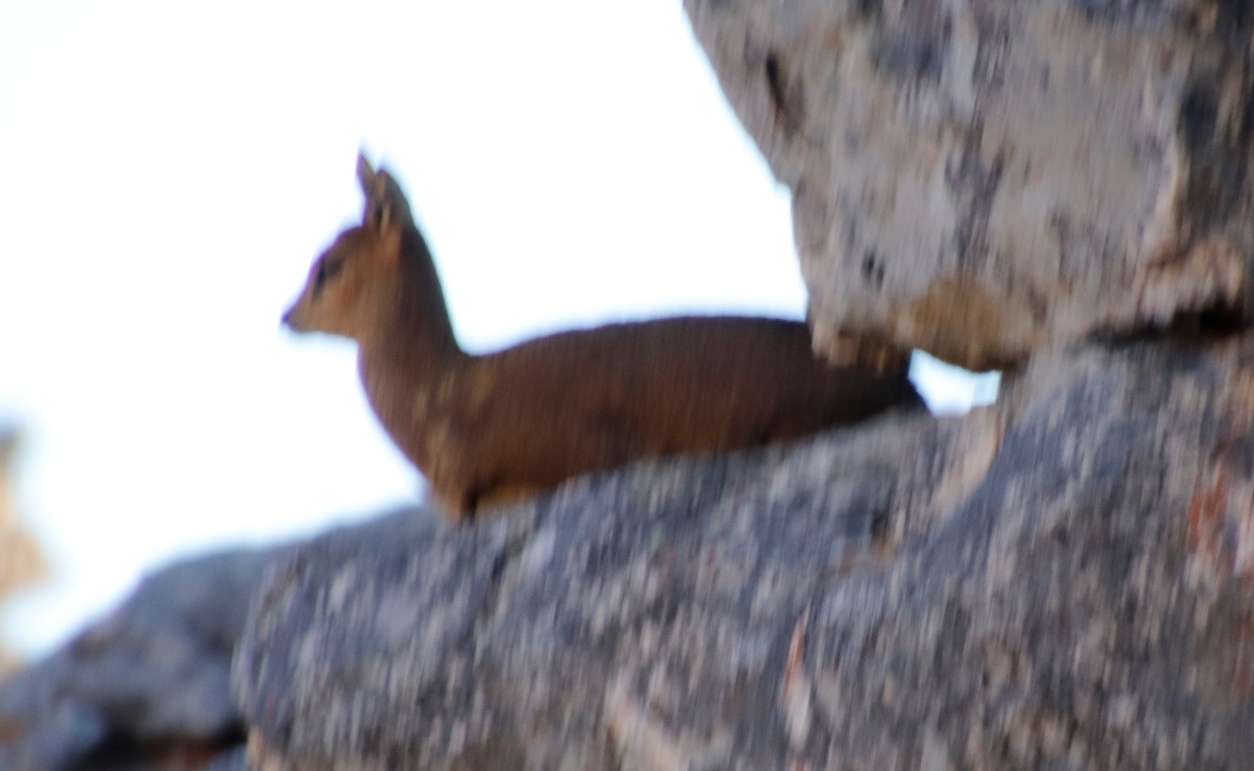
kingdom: Animalia
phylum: Chordata
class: Mammalia
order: Artiodactyla
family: Bovidae
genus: Oreotragus
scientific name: Oreotragus oreotragus
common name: Klipspringer
